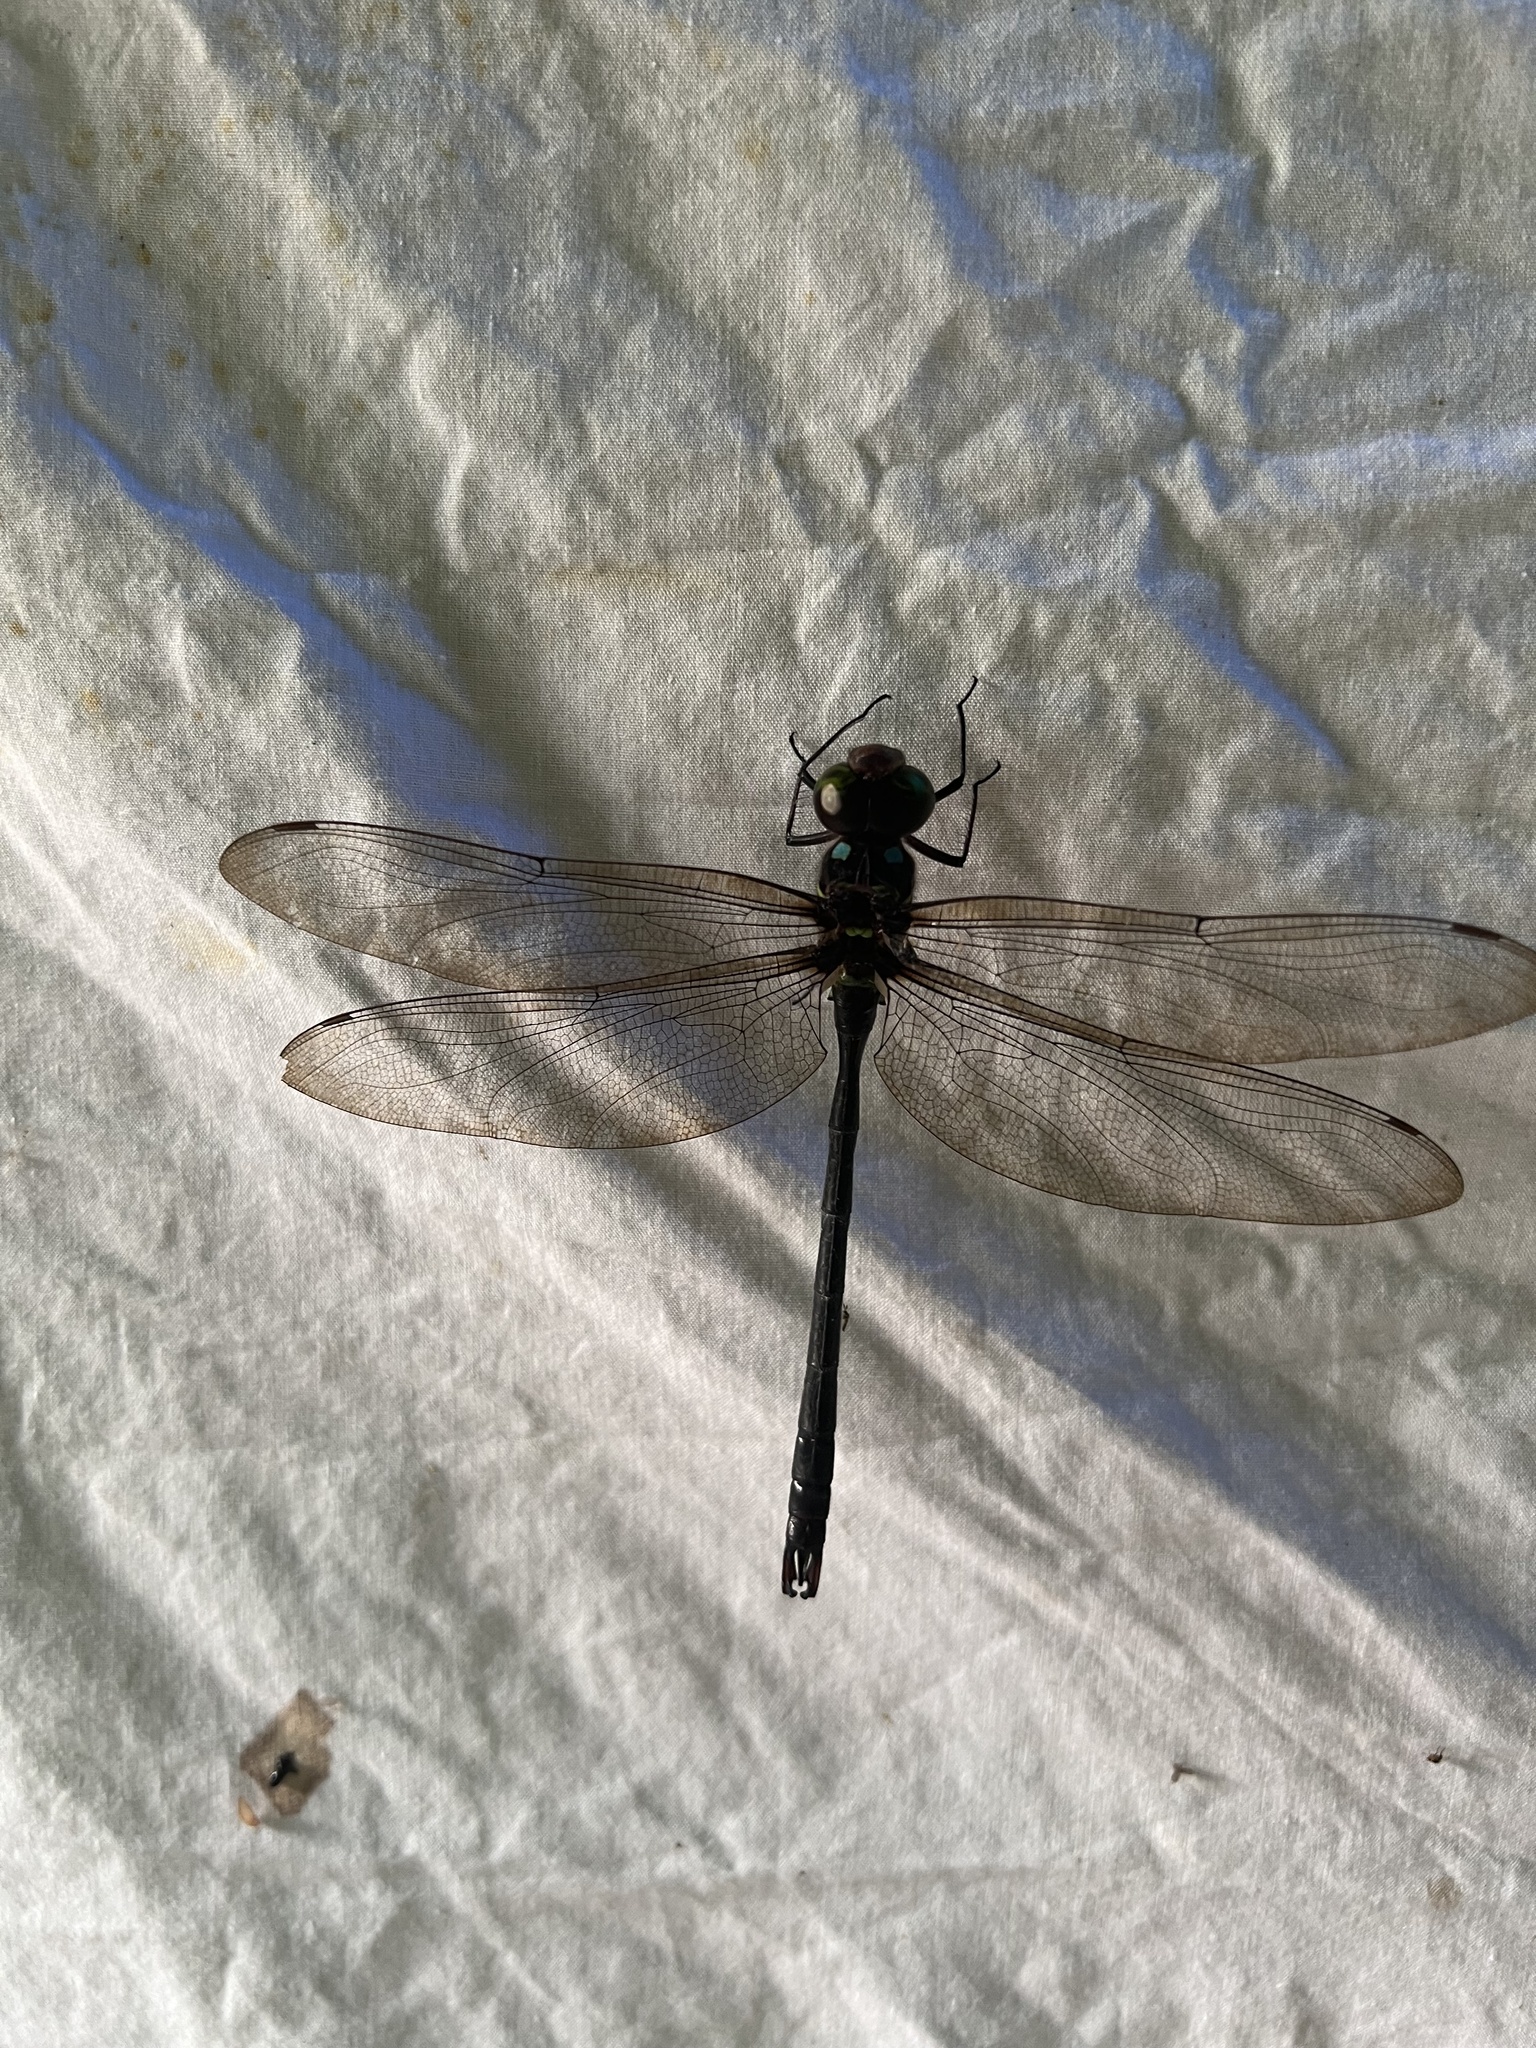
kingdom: Animalia
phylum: Arthropoda
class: Insecta
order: Odonata
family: Aeshnidae
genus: Neuraeschna
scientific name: Neuraeschna maya
